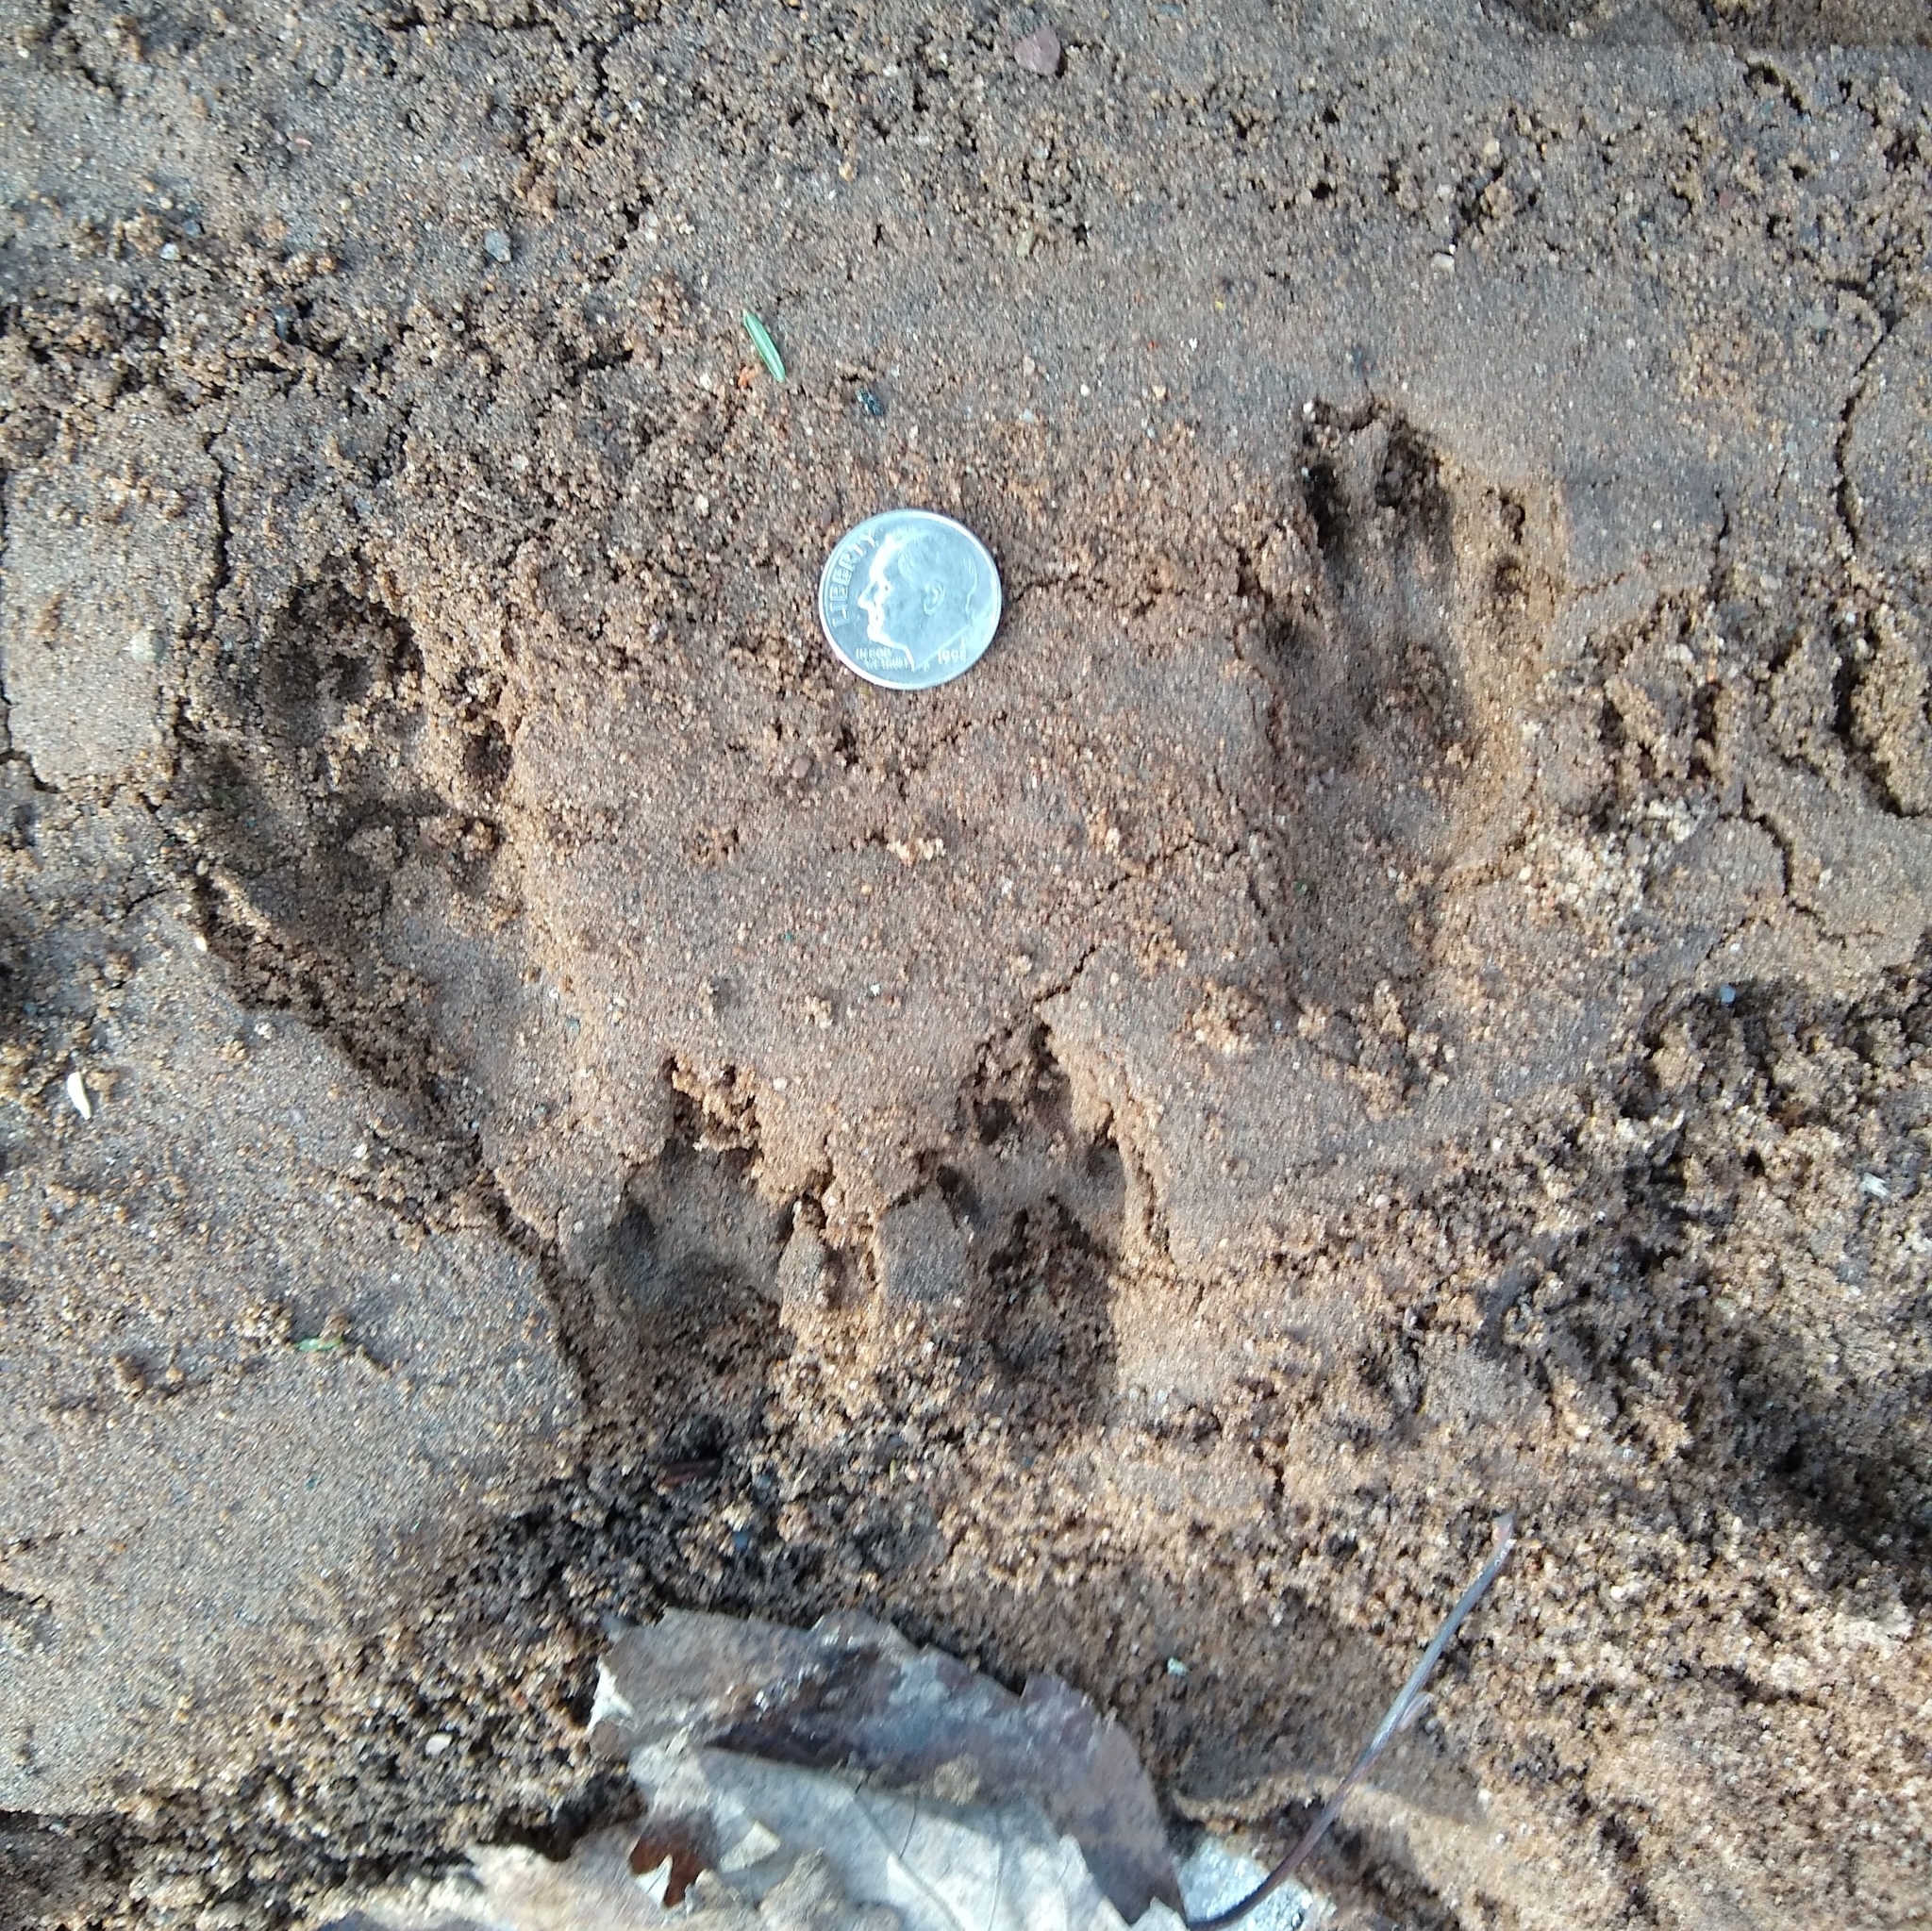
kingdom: Animalia
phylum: Chordata
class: Mammalia
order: Rodentia
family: Sciuridae
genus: Sciurus
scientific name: Sciurus carolinensis
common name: Eastern gray squirrel
